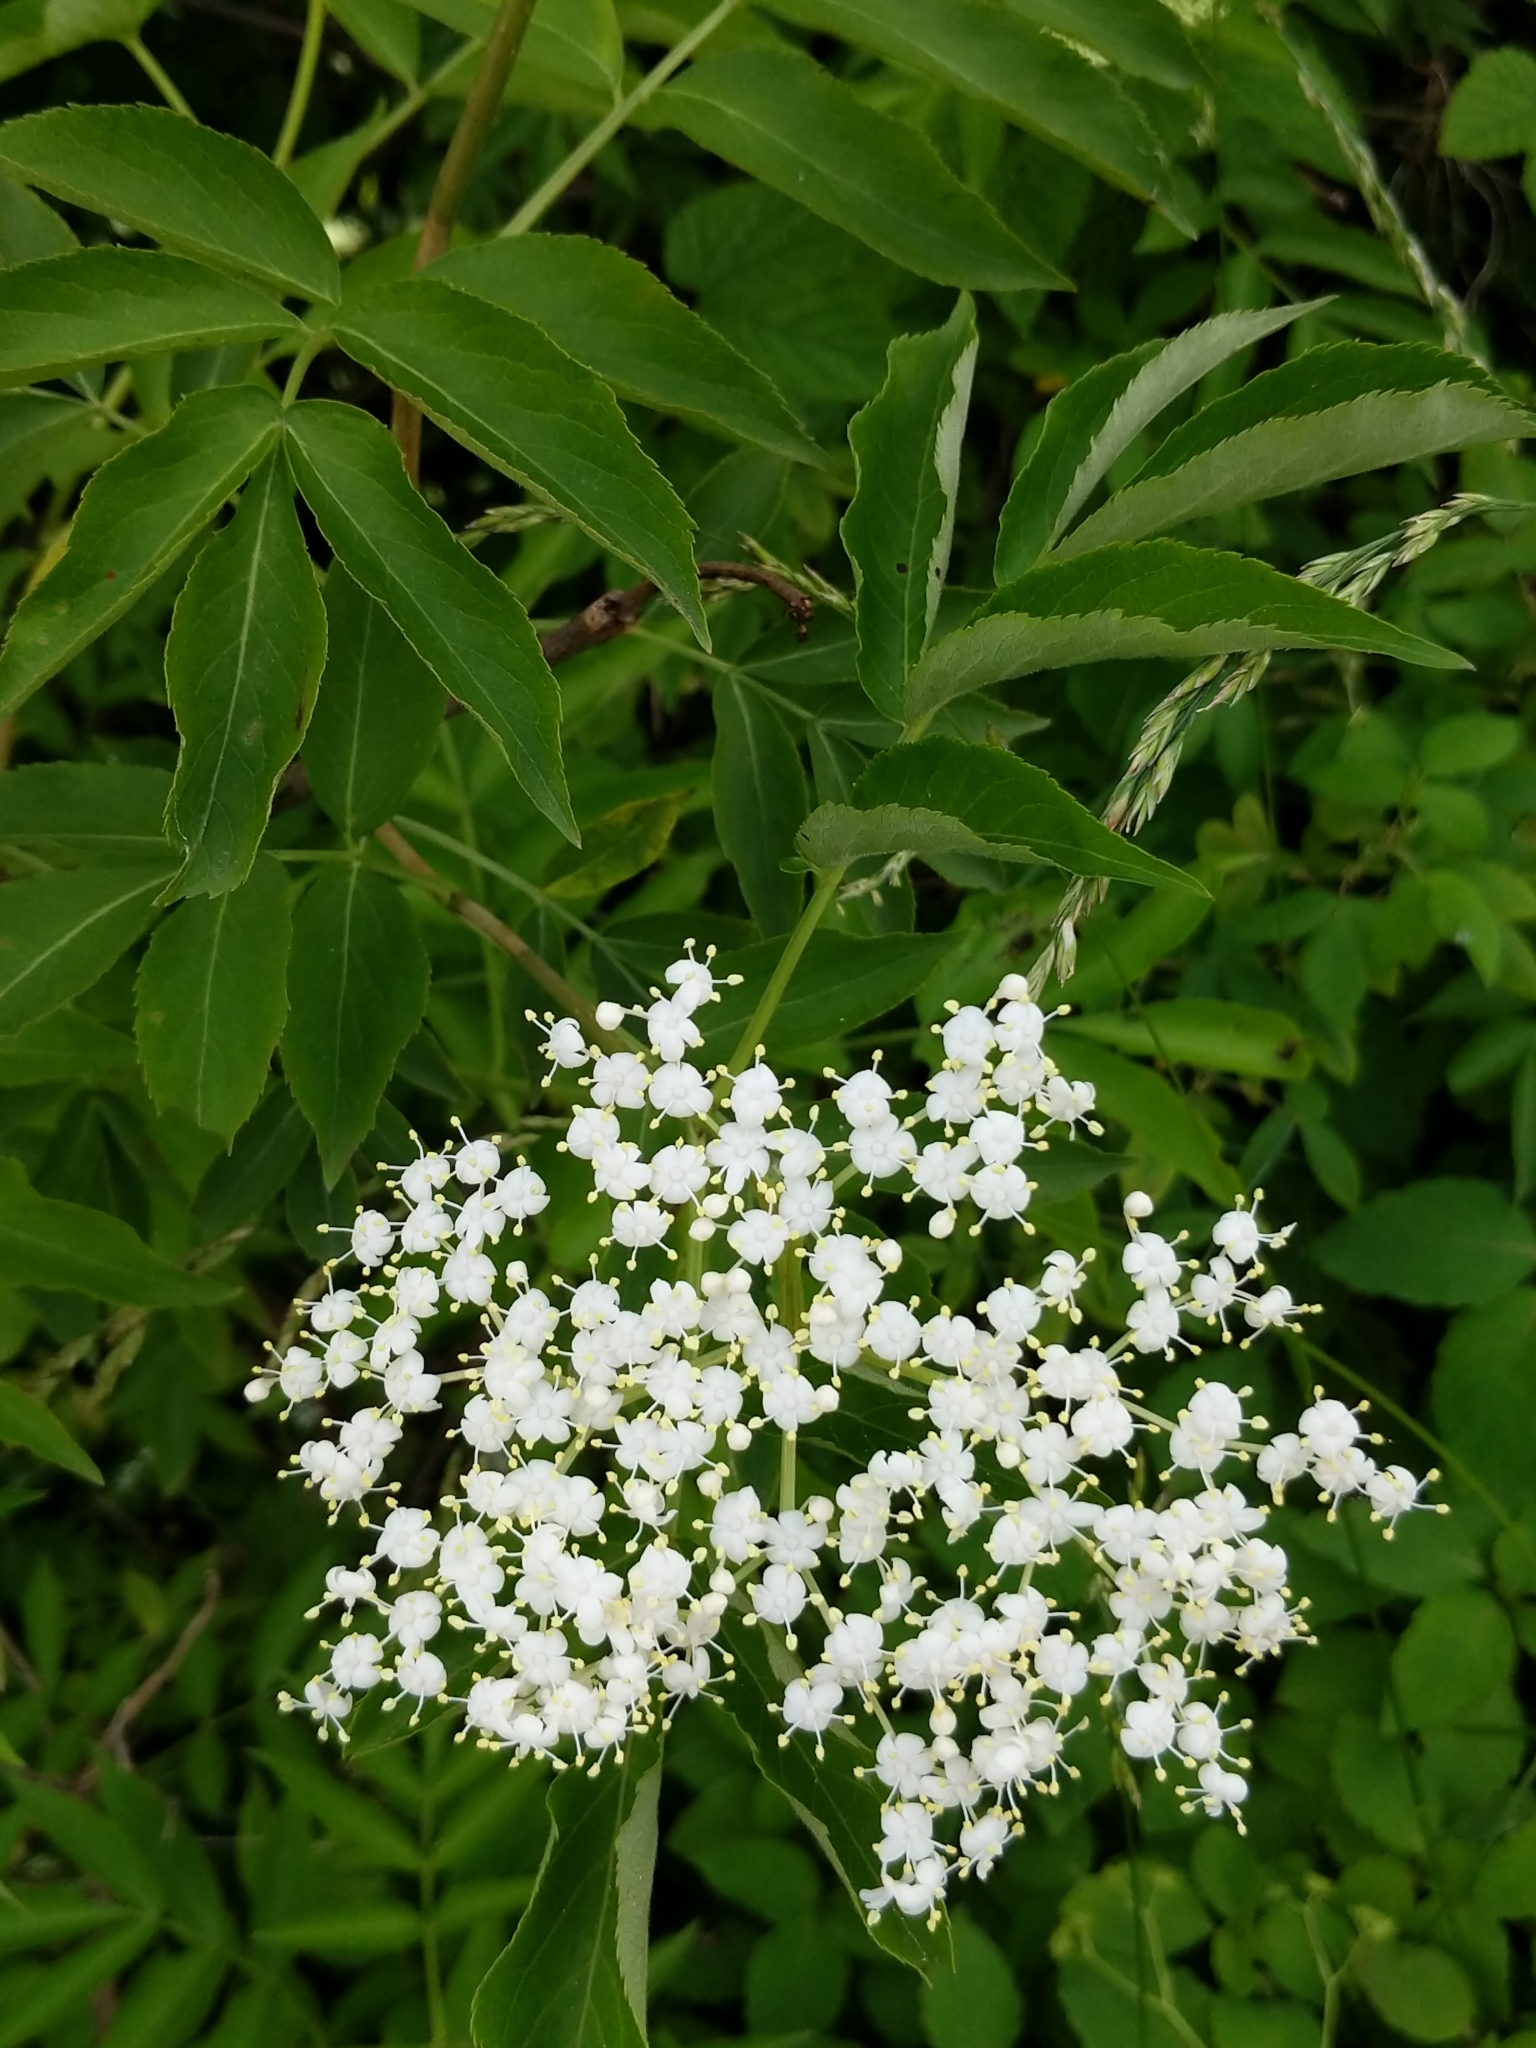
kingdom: Plantae
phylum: Tracheophyta
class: Magnoliopsida
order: Dipsacales
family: Viburnaceae
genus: Sambucus
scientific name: Sambucus canadensis
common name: American elder
